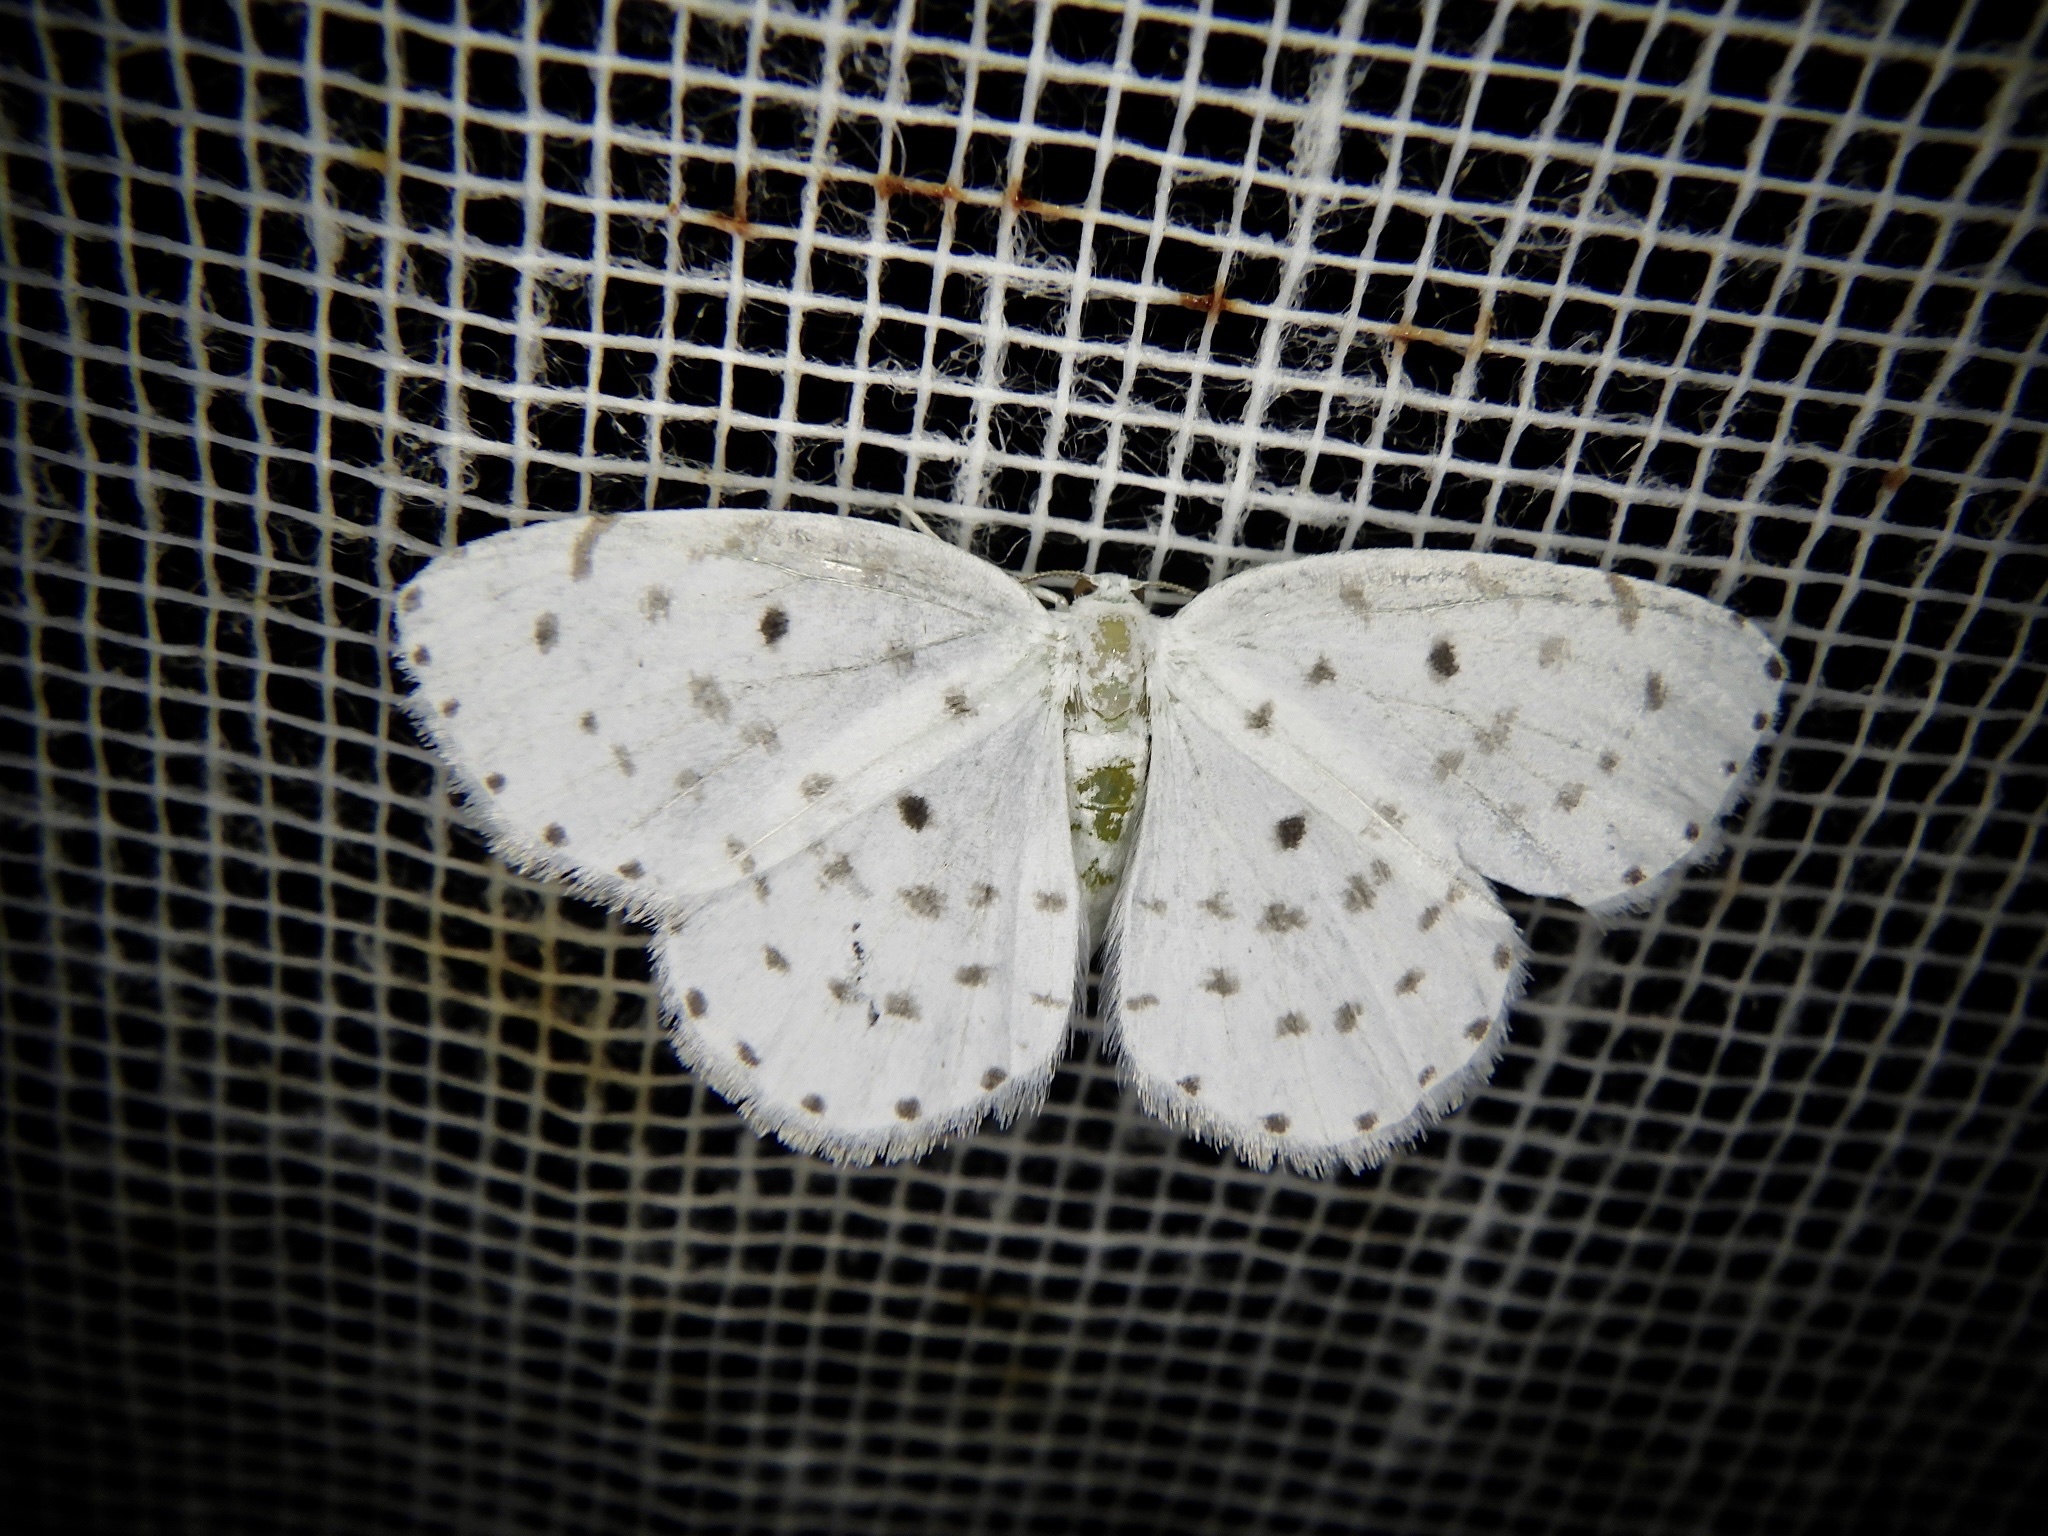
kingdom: Animalia
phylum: Arthropoda
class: Insecta
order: Lepidoptera
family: Geometridae
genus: Myrteta
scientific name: Myrteta punctata
